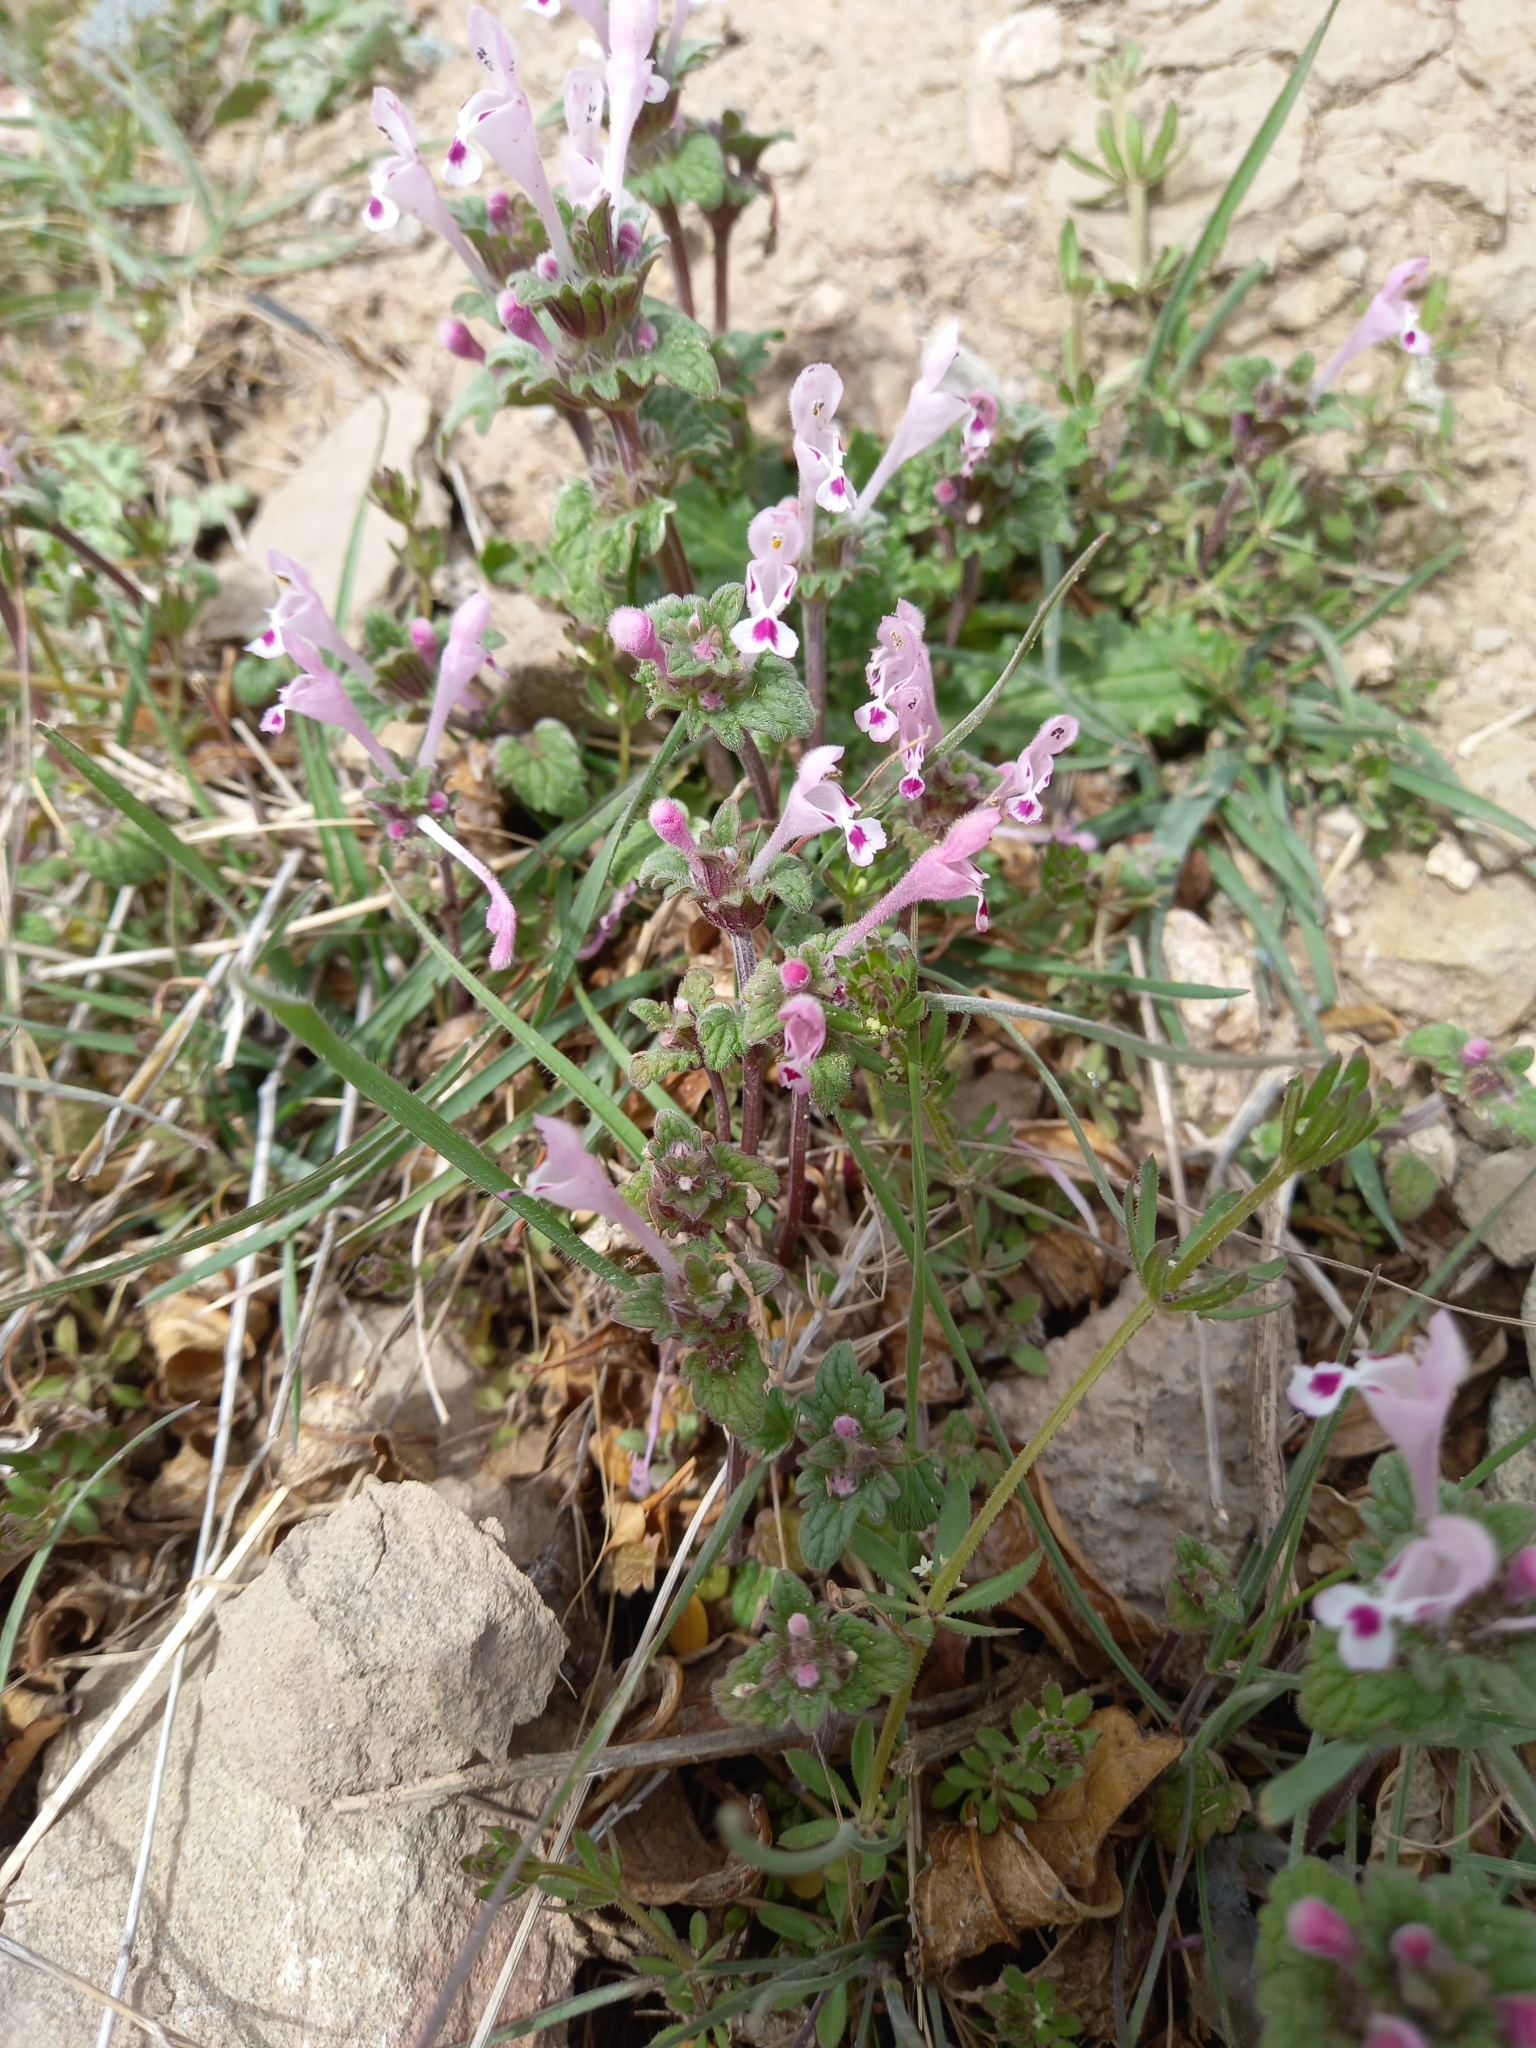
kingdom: Plantae
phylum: Tracheophyta
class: Magnoliopsida
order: Lamiales
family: Lamiaceae
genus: Lamium
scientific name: Lamium amplexicaule
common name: Henbit dead-nettle
